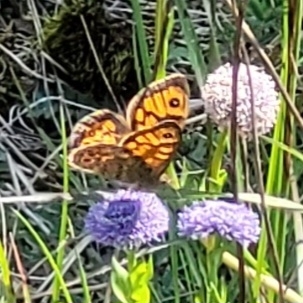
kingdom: Animalia
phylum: Arthropoda
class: Insecta
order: Lepidoptera
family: Nymphalidae
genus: Pararge
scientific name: Pararge Lasiommata megera
